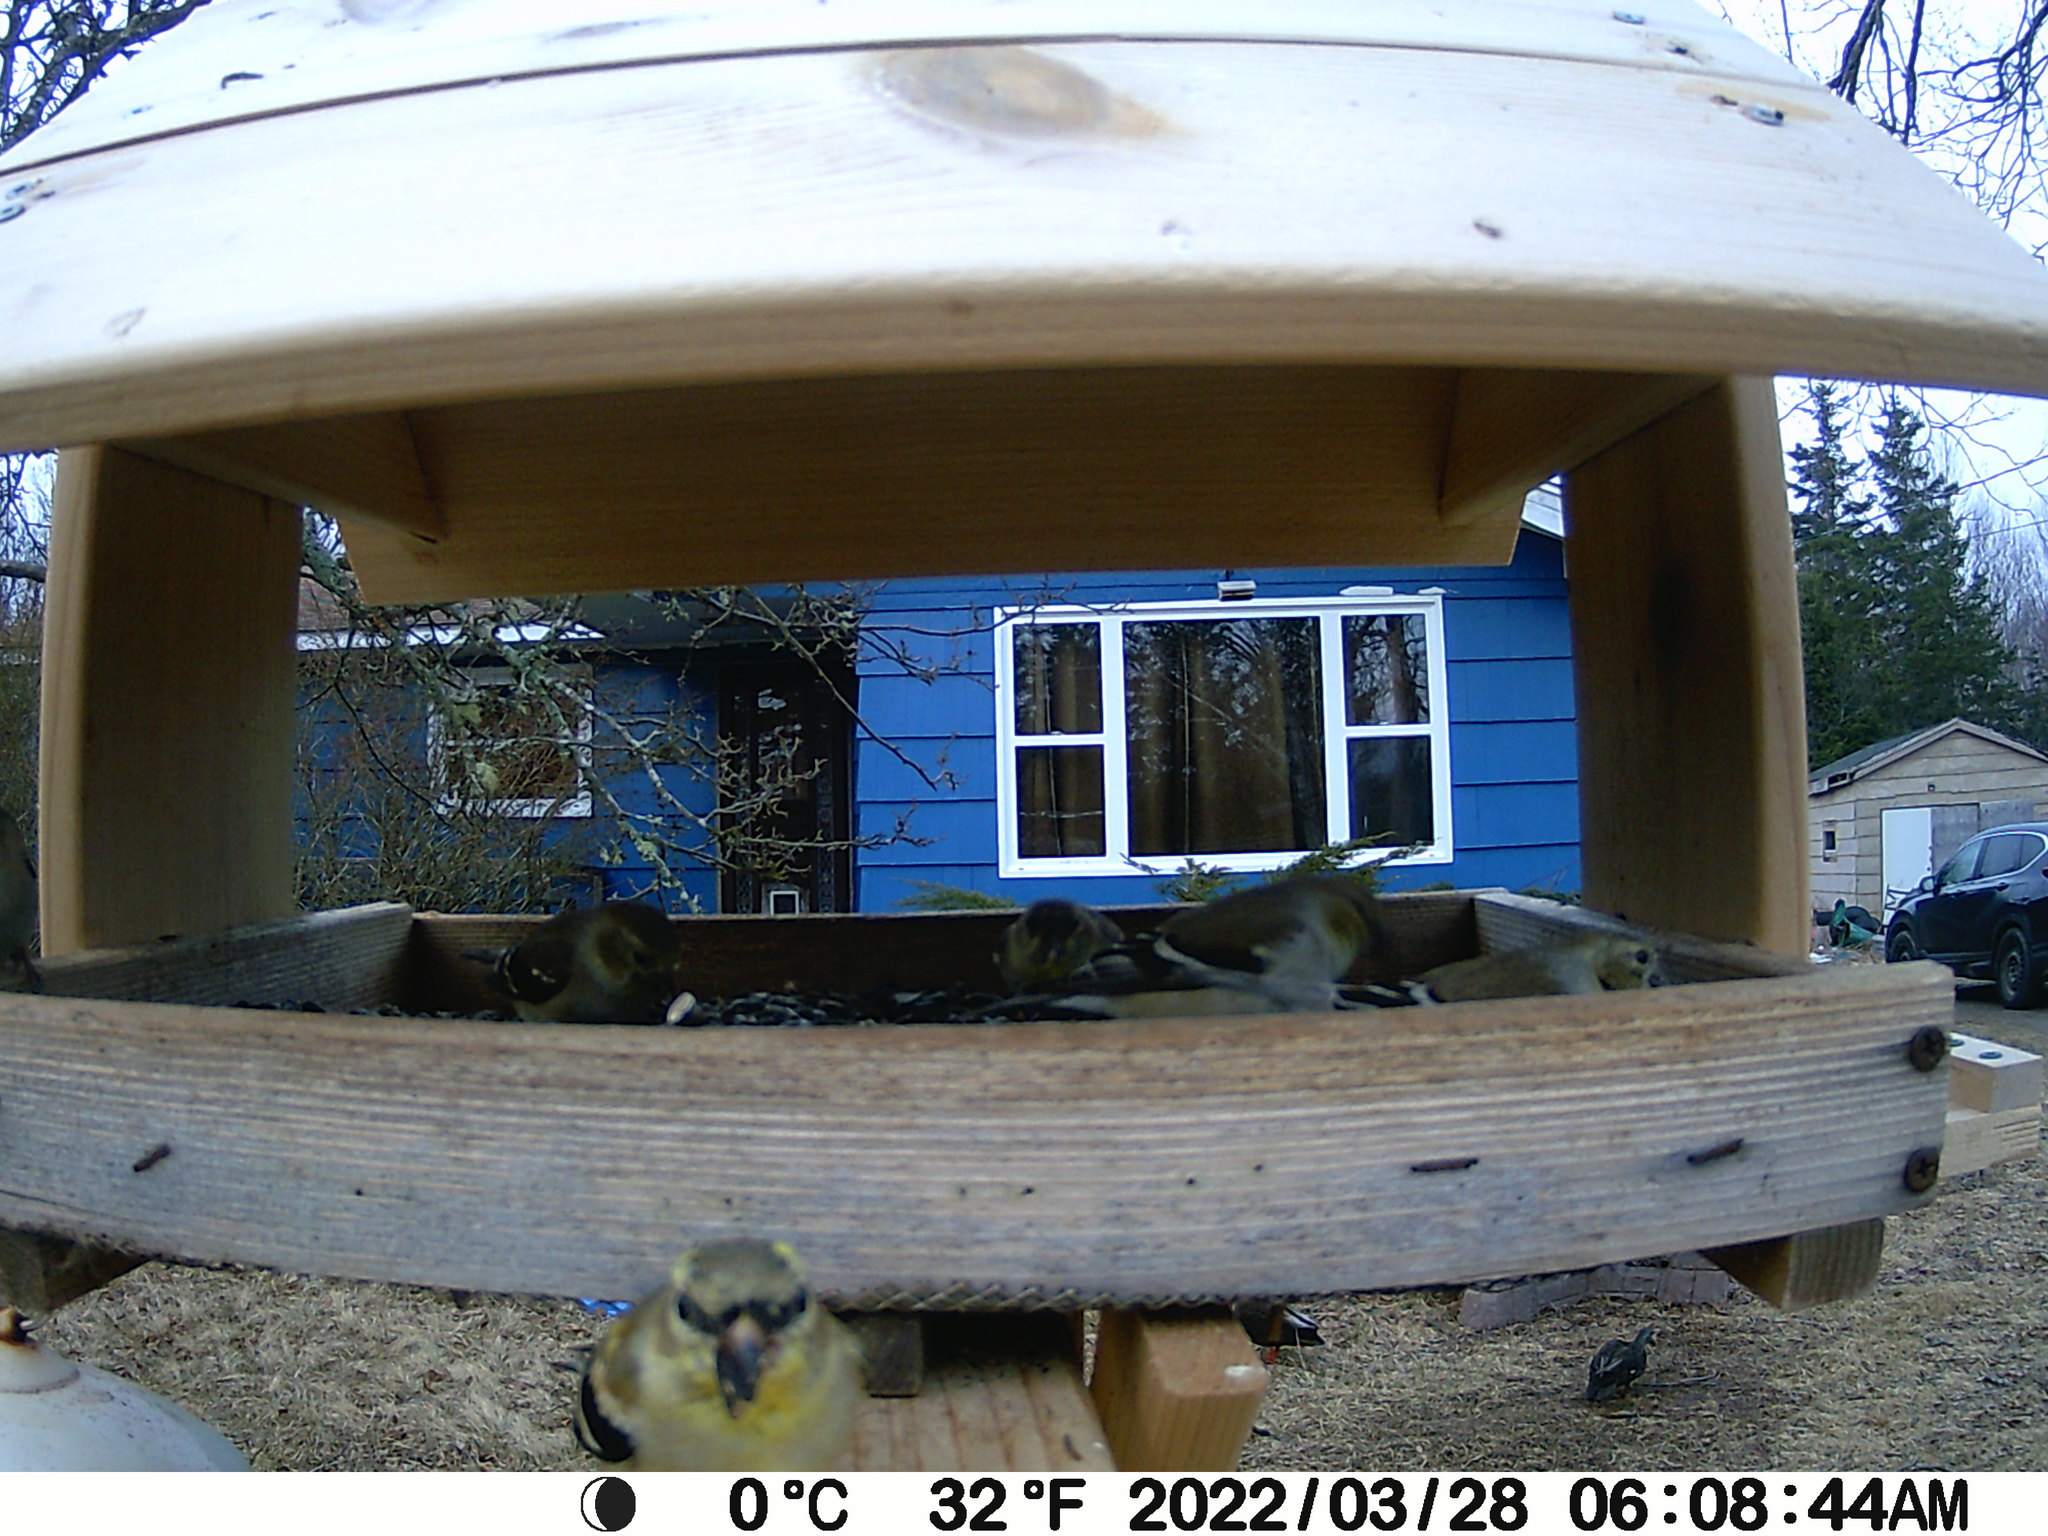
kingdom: Animalia
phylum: Chordata
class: Aves
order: Anseriformes
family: Anatidae
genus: Anas
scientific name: Anas rubripes
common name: American black duck
